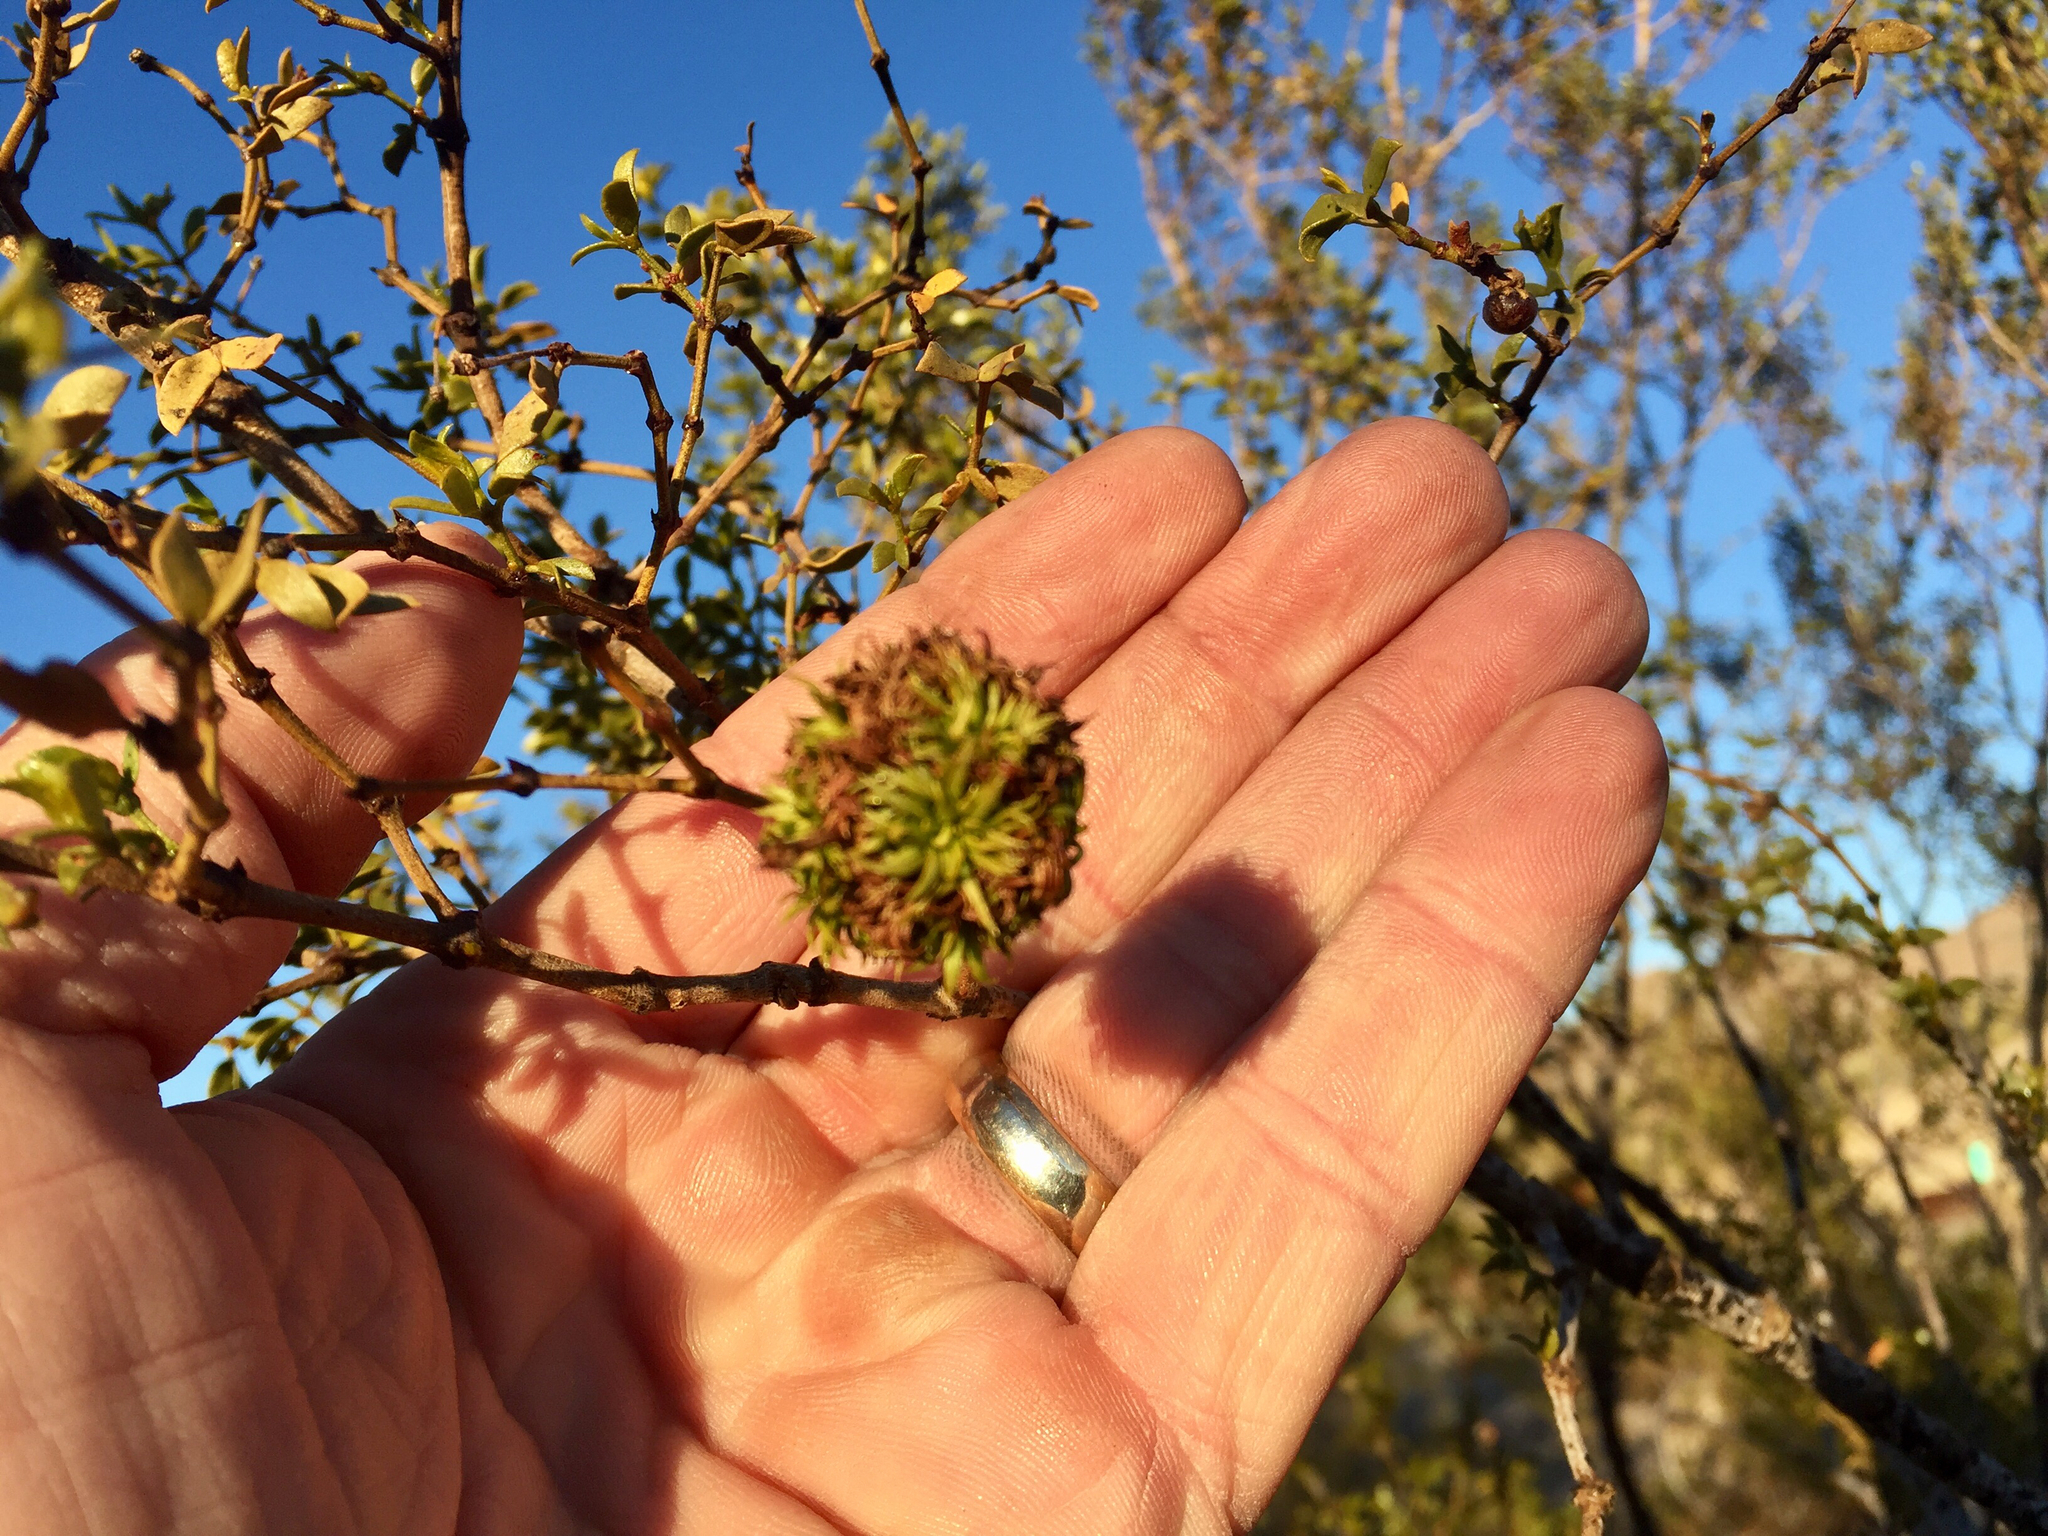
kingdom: Animalia
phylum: Arthropoda
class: Insecta
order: Diptera
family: Cecidomyiidae
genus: Asphondylia
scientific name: Asphondylia auripila
